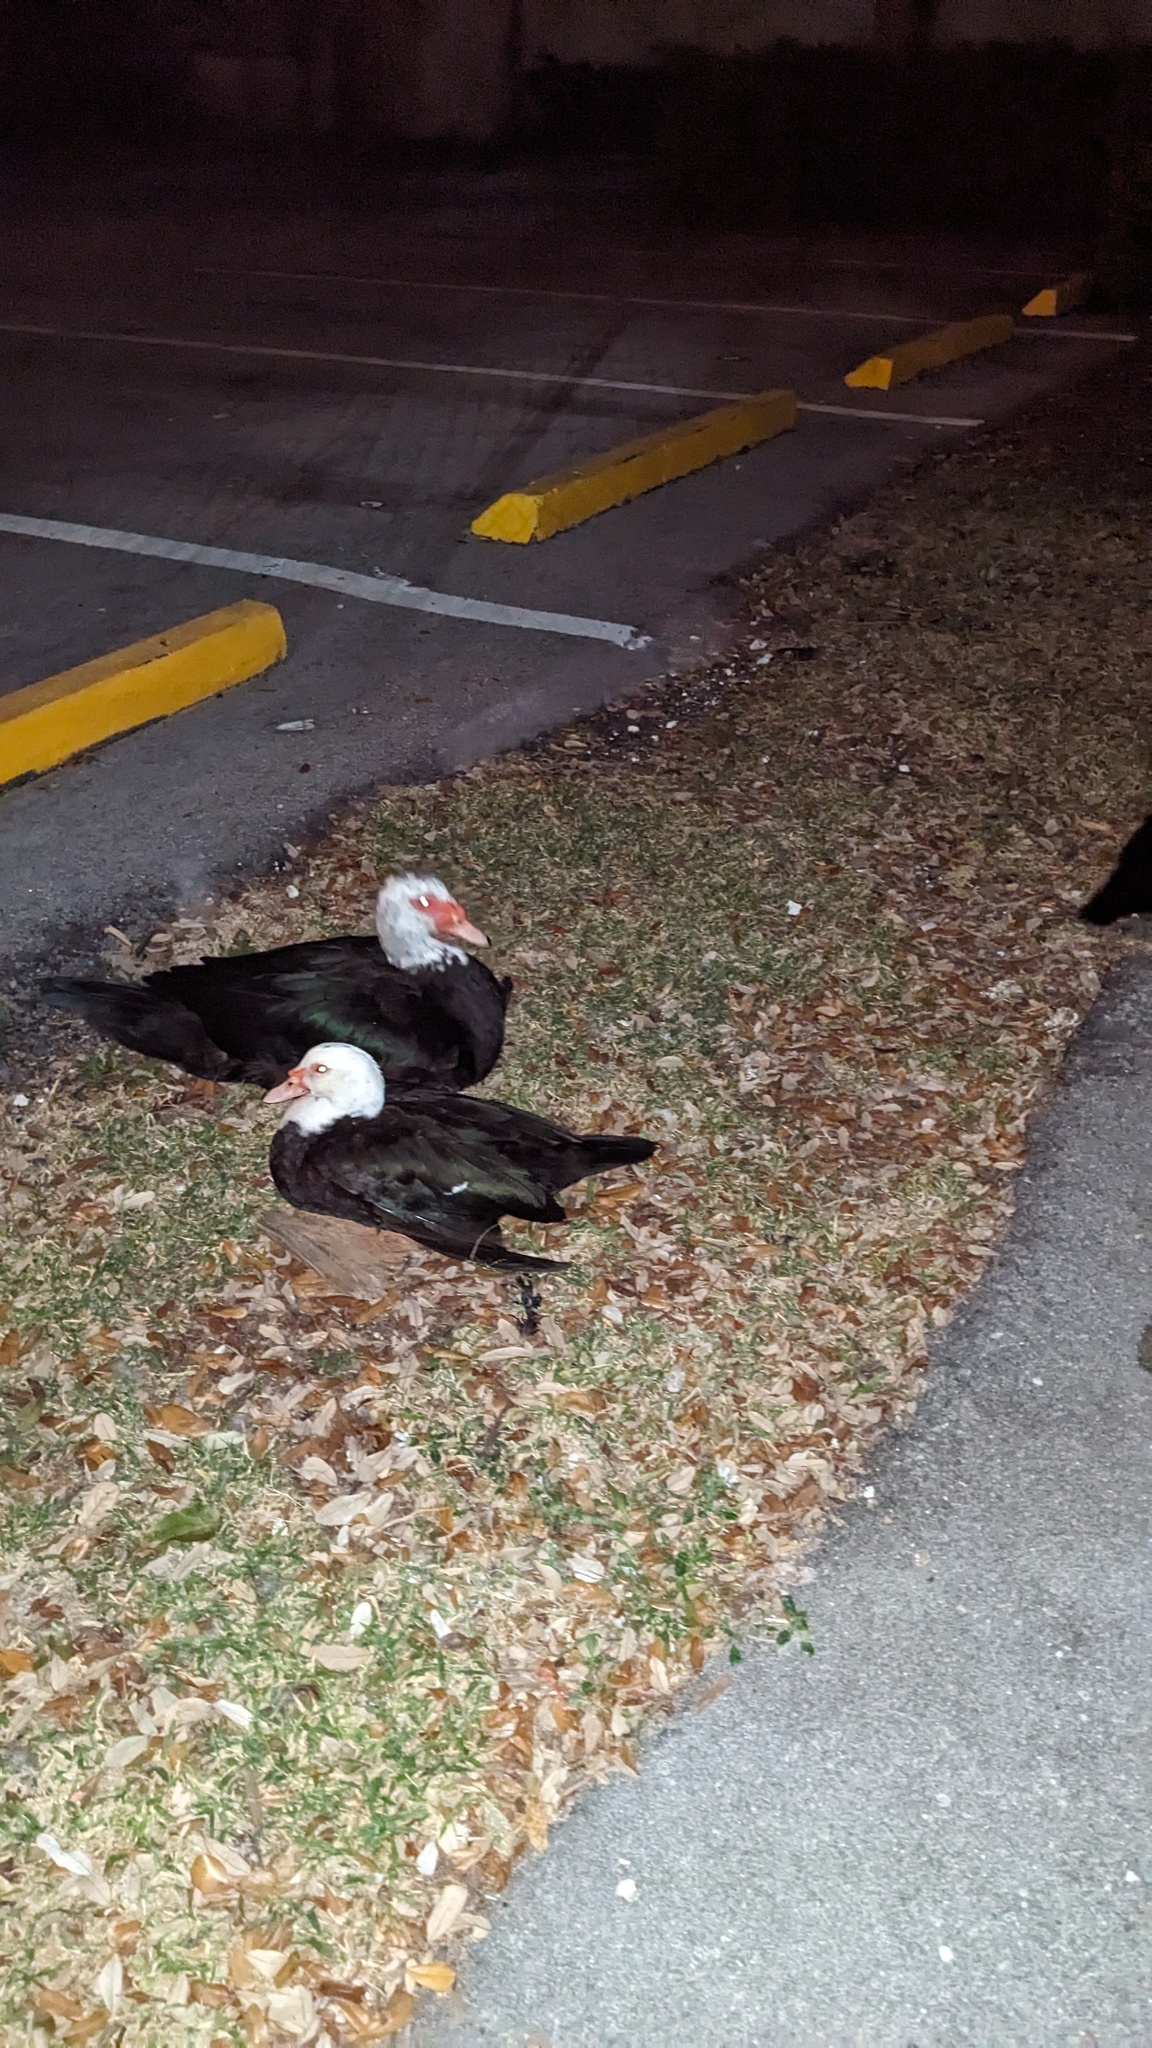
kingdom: Animalia
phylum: Chordata
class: Aves
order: Anseriformes
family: Anatidae
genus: Cairina
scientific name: Cairina moschata
